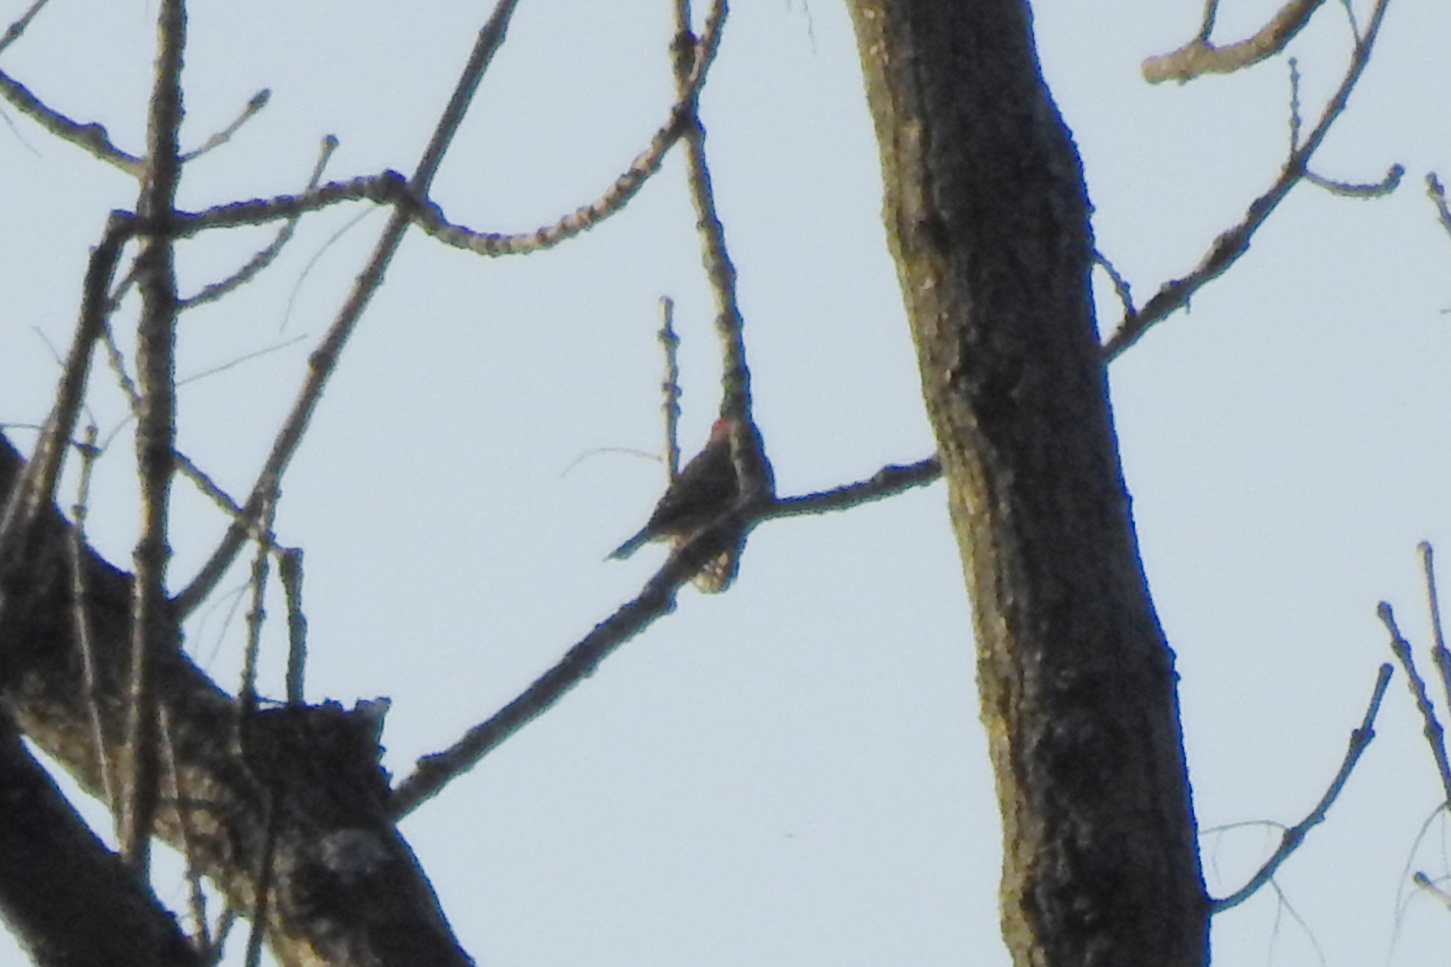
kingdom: Animalia
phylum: Chordata
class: Aves
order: Passeriformes
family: Fringillidae
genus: Haemorhous
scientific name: Haemorhous mexicanus
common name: House finch
